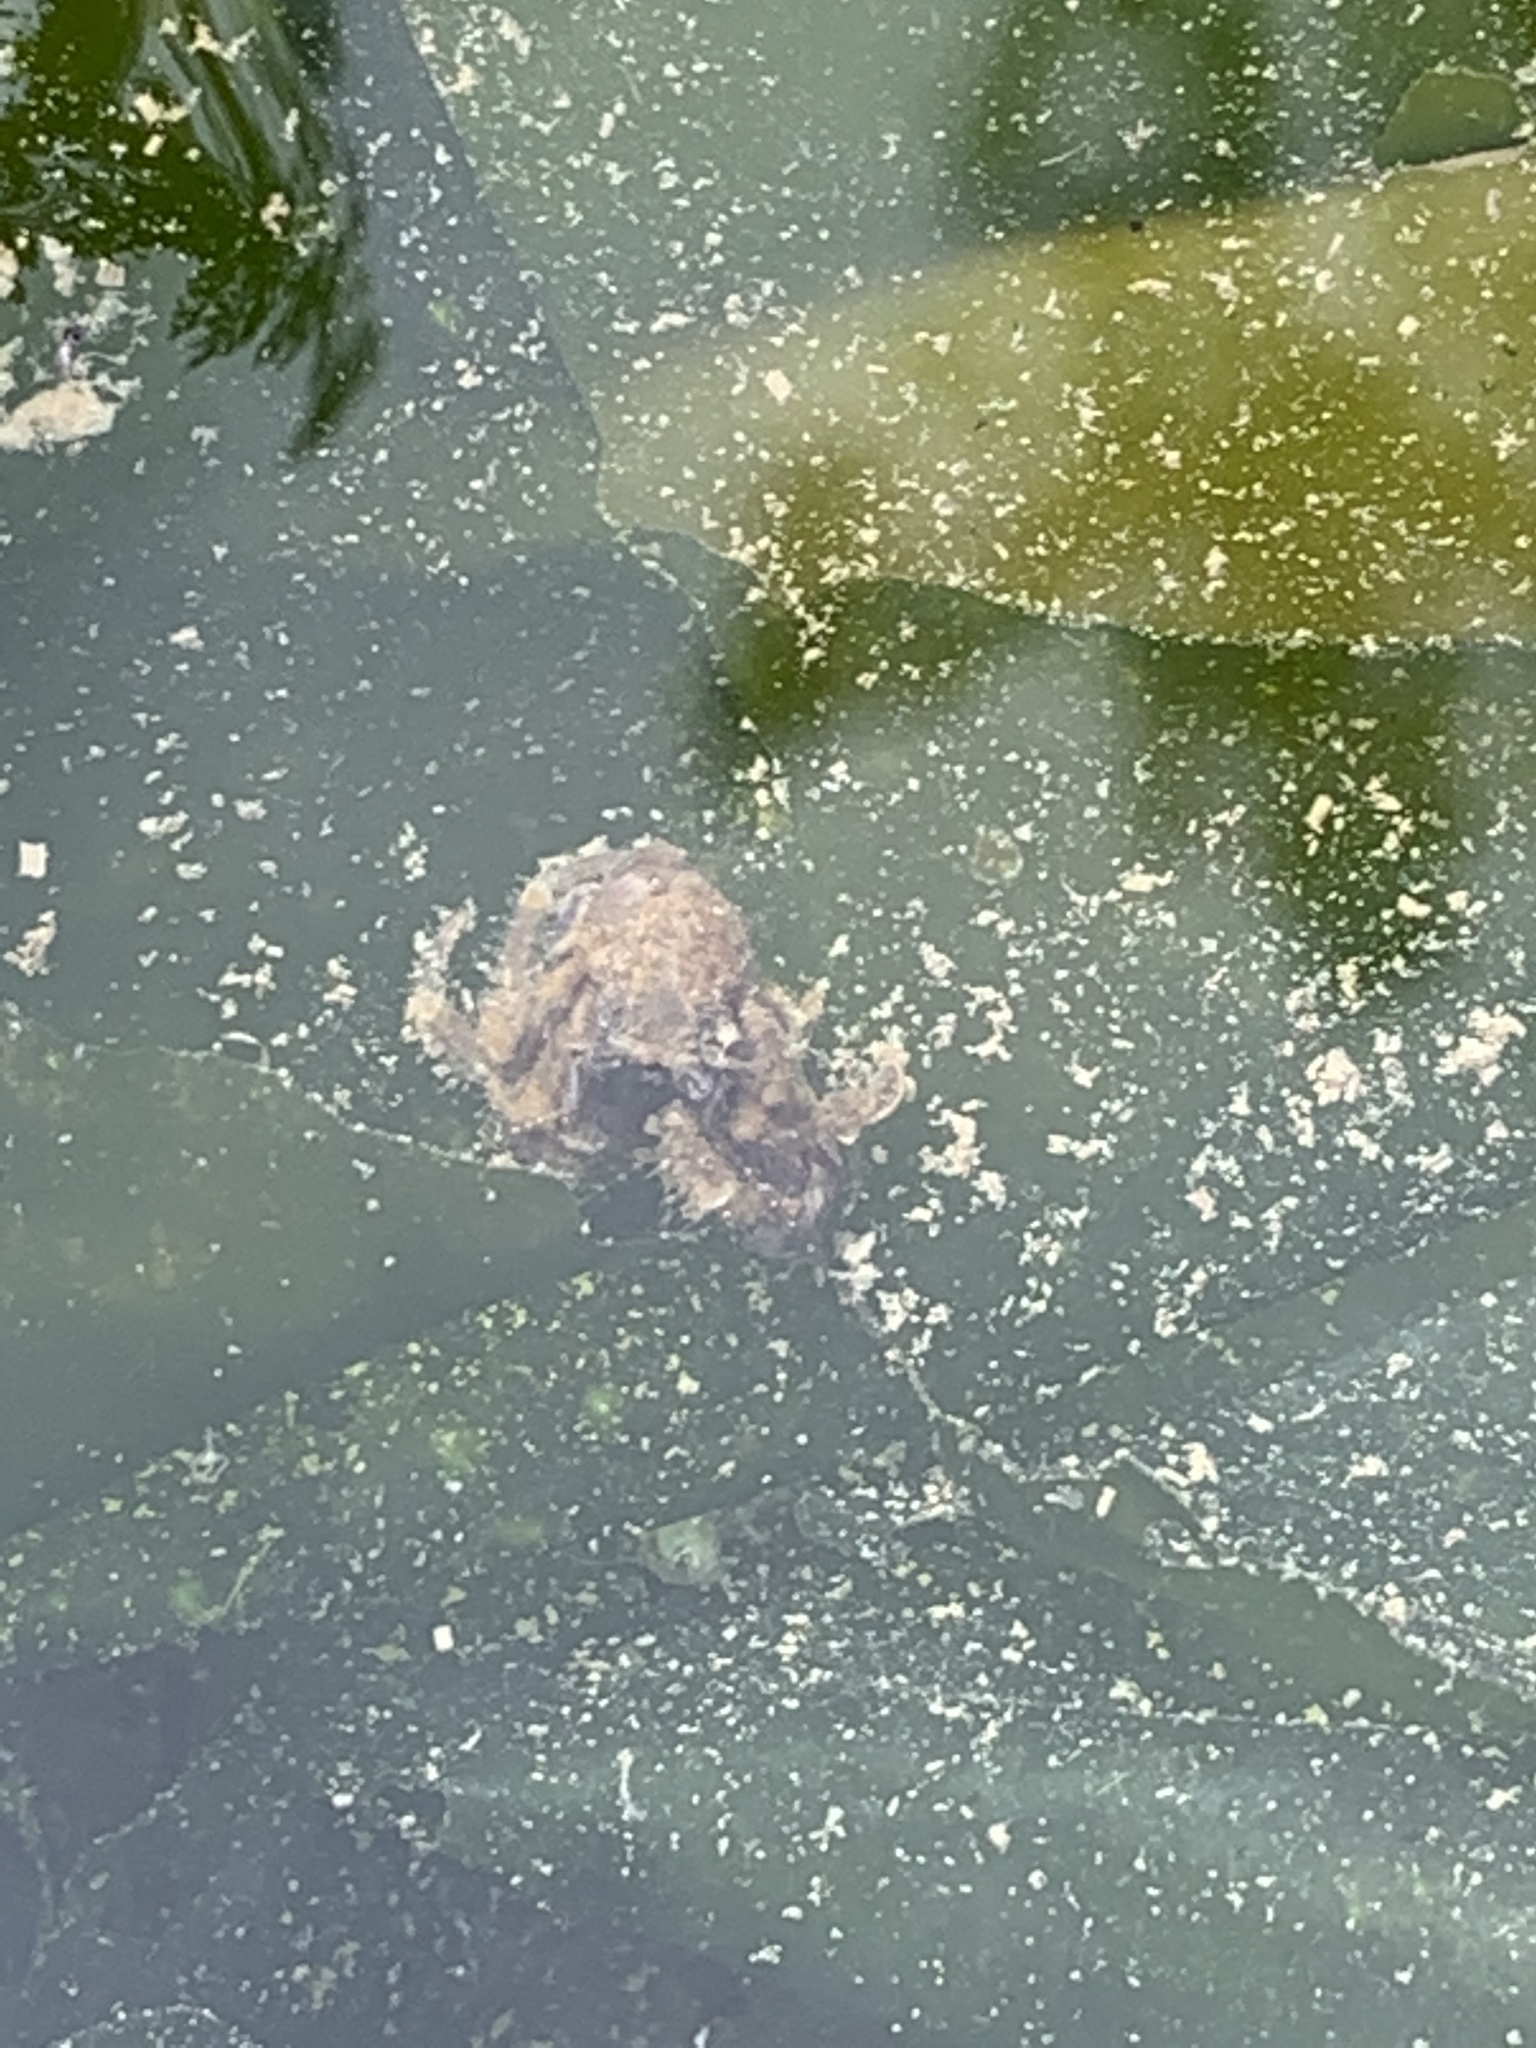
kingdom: Animalia
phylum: Arthropoda
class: Malacostraca
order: Decapoda
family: Paguridae
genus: Pagurus
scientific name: Pagurus hirsutiusculus
